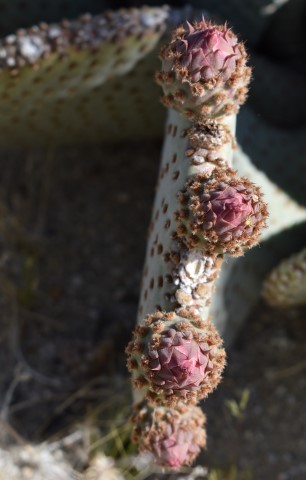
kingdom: Plantae
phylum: Tracheophyta
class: Magnoliopsida
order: Caryophyllales
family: Cactaceae
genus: Opuntia
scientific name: Opuntia basilaris
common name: Beavertail prickly-pear
